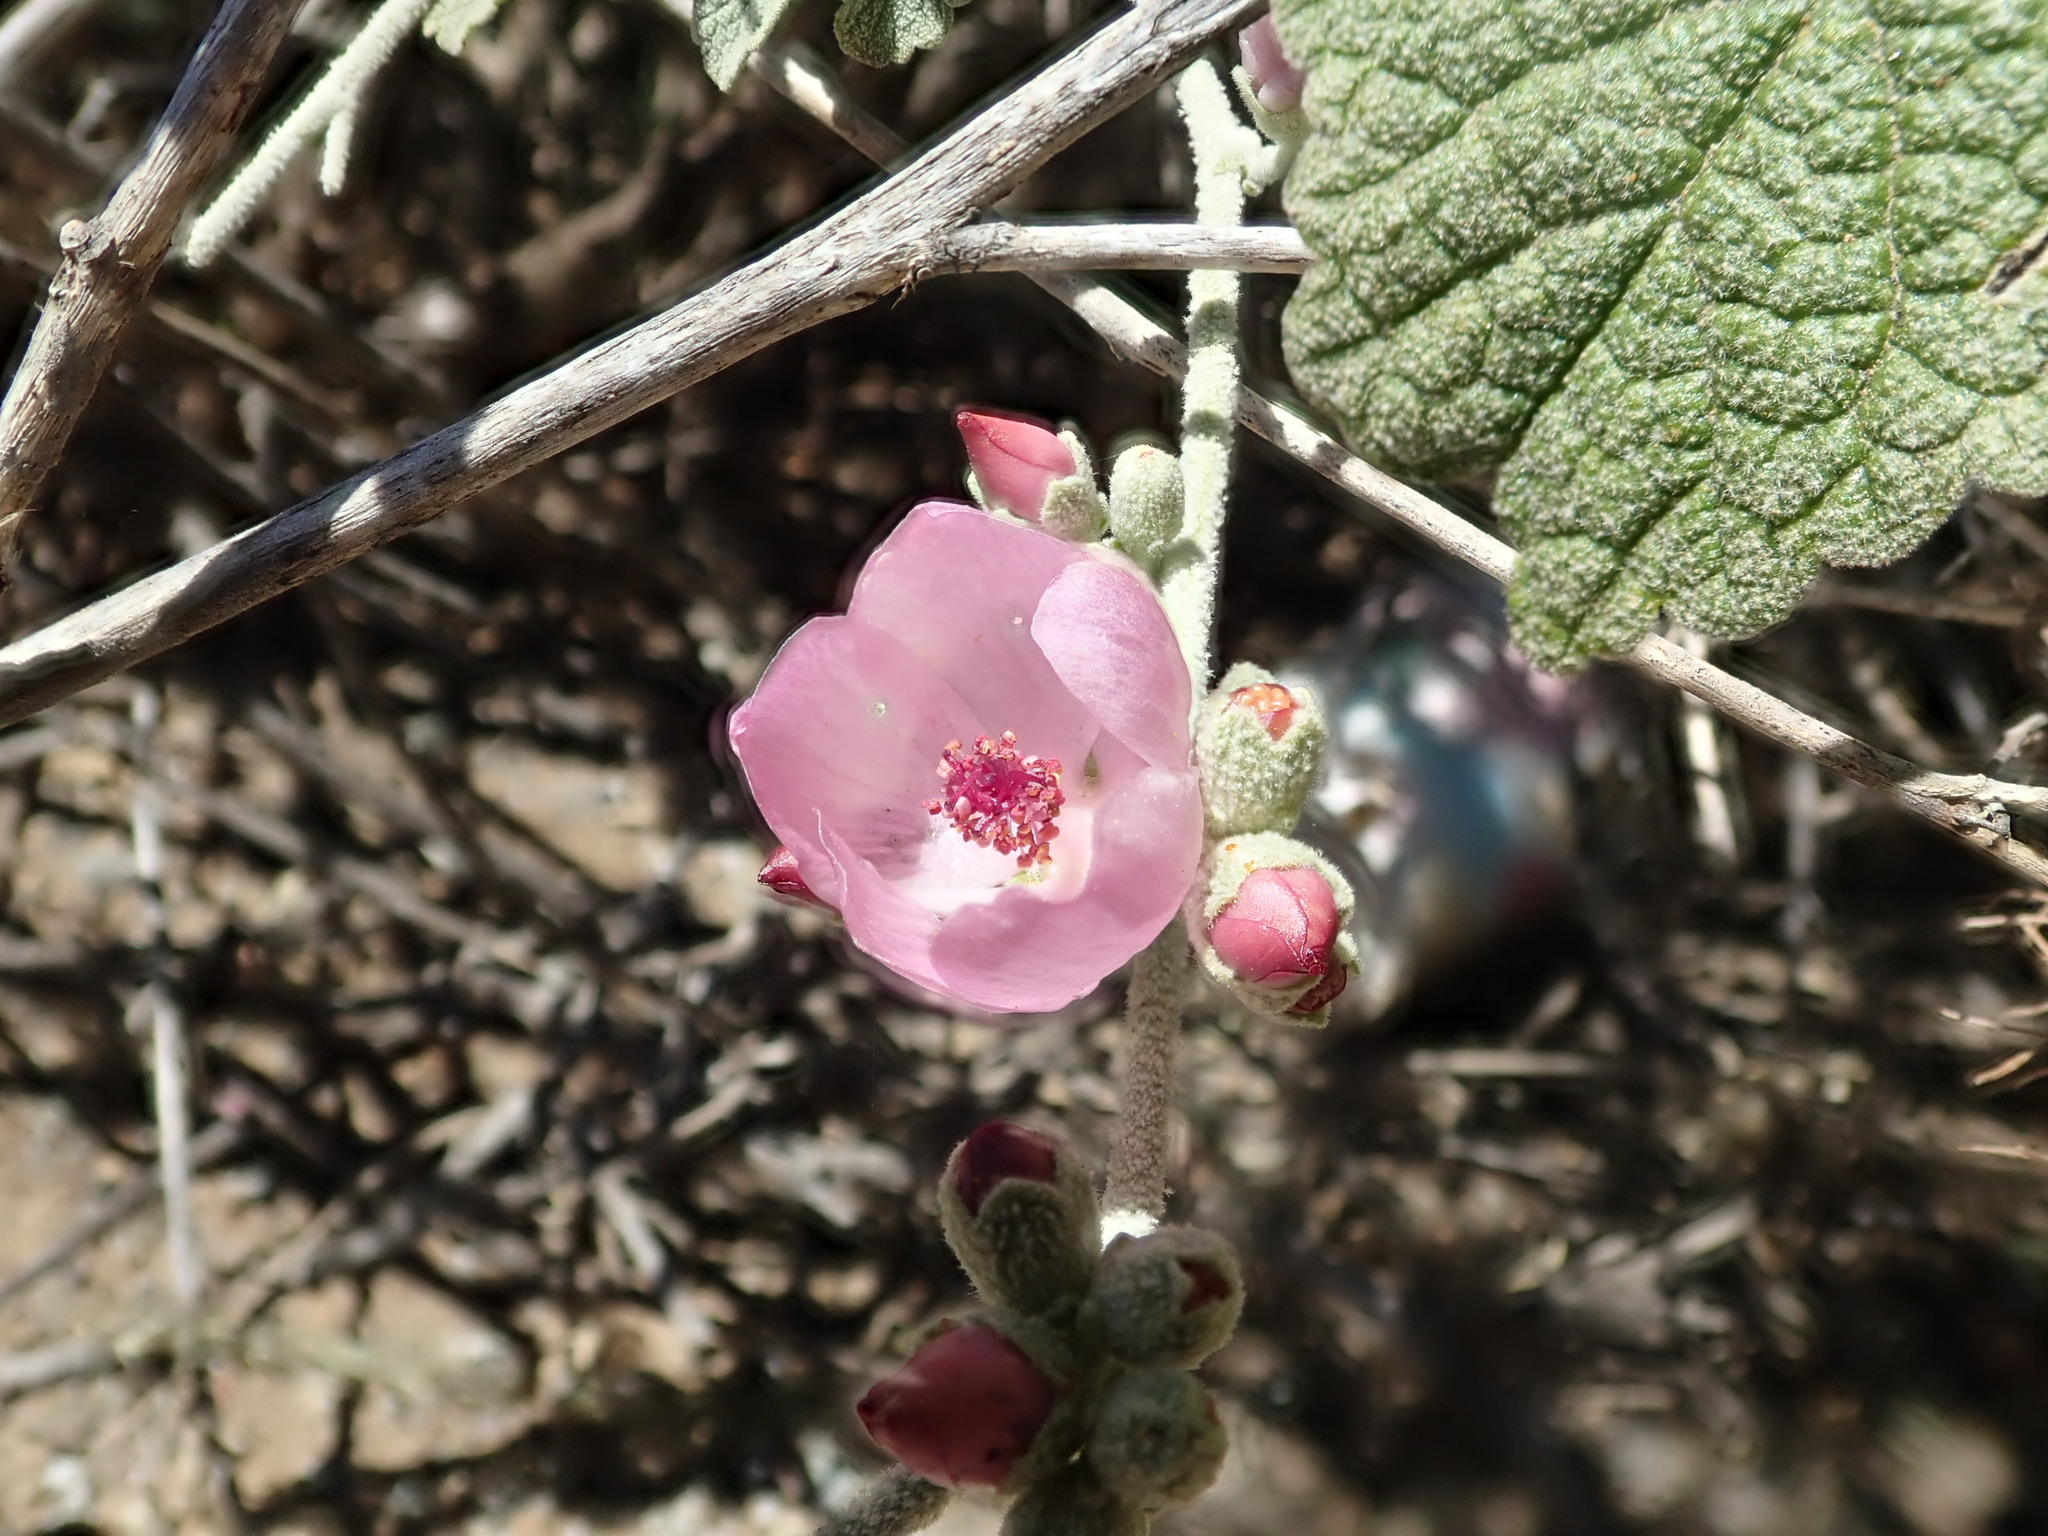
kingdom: Plantae
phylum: Tracheophyta
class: Magnoliopsida
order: Malvales
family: Malvaceae
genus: Malacothamnus
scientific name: Malacothamnus fasciculatus
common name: Sant cruz island bush-mallow
